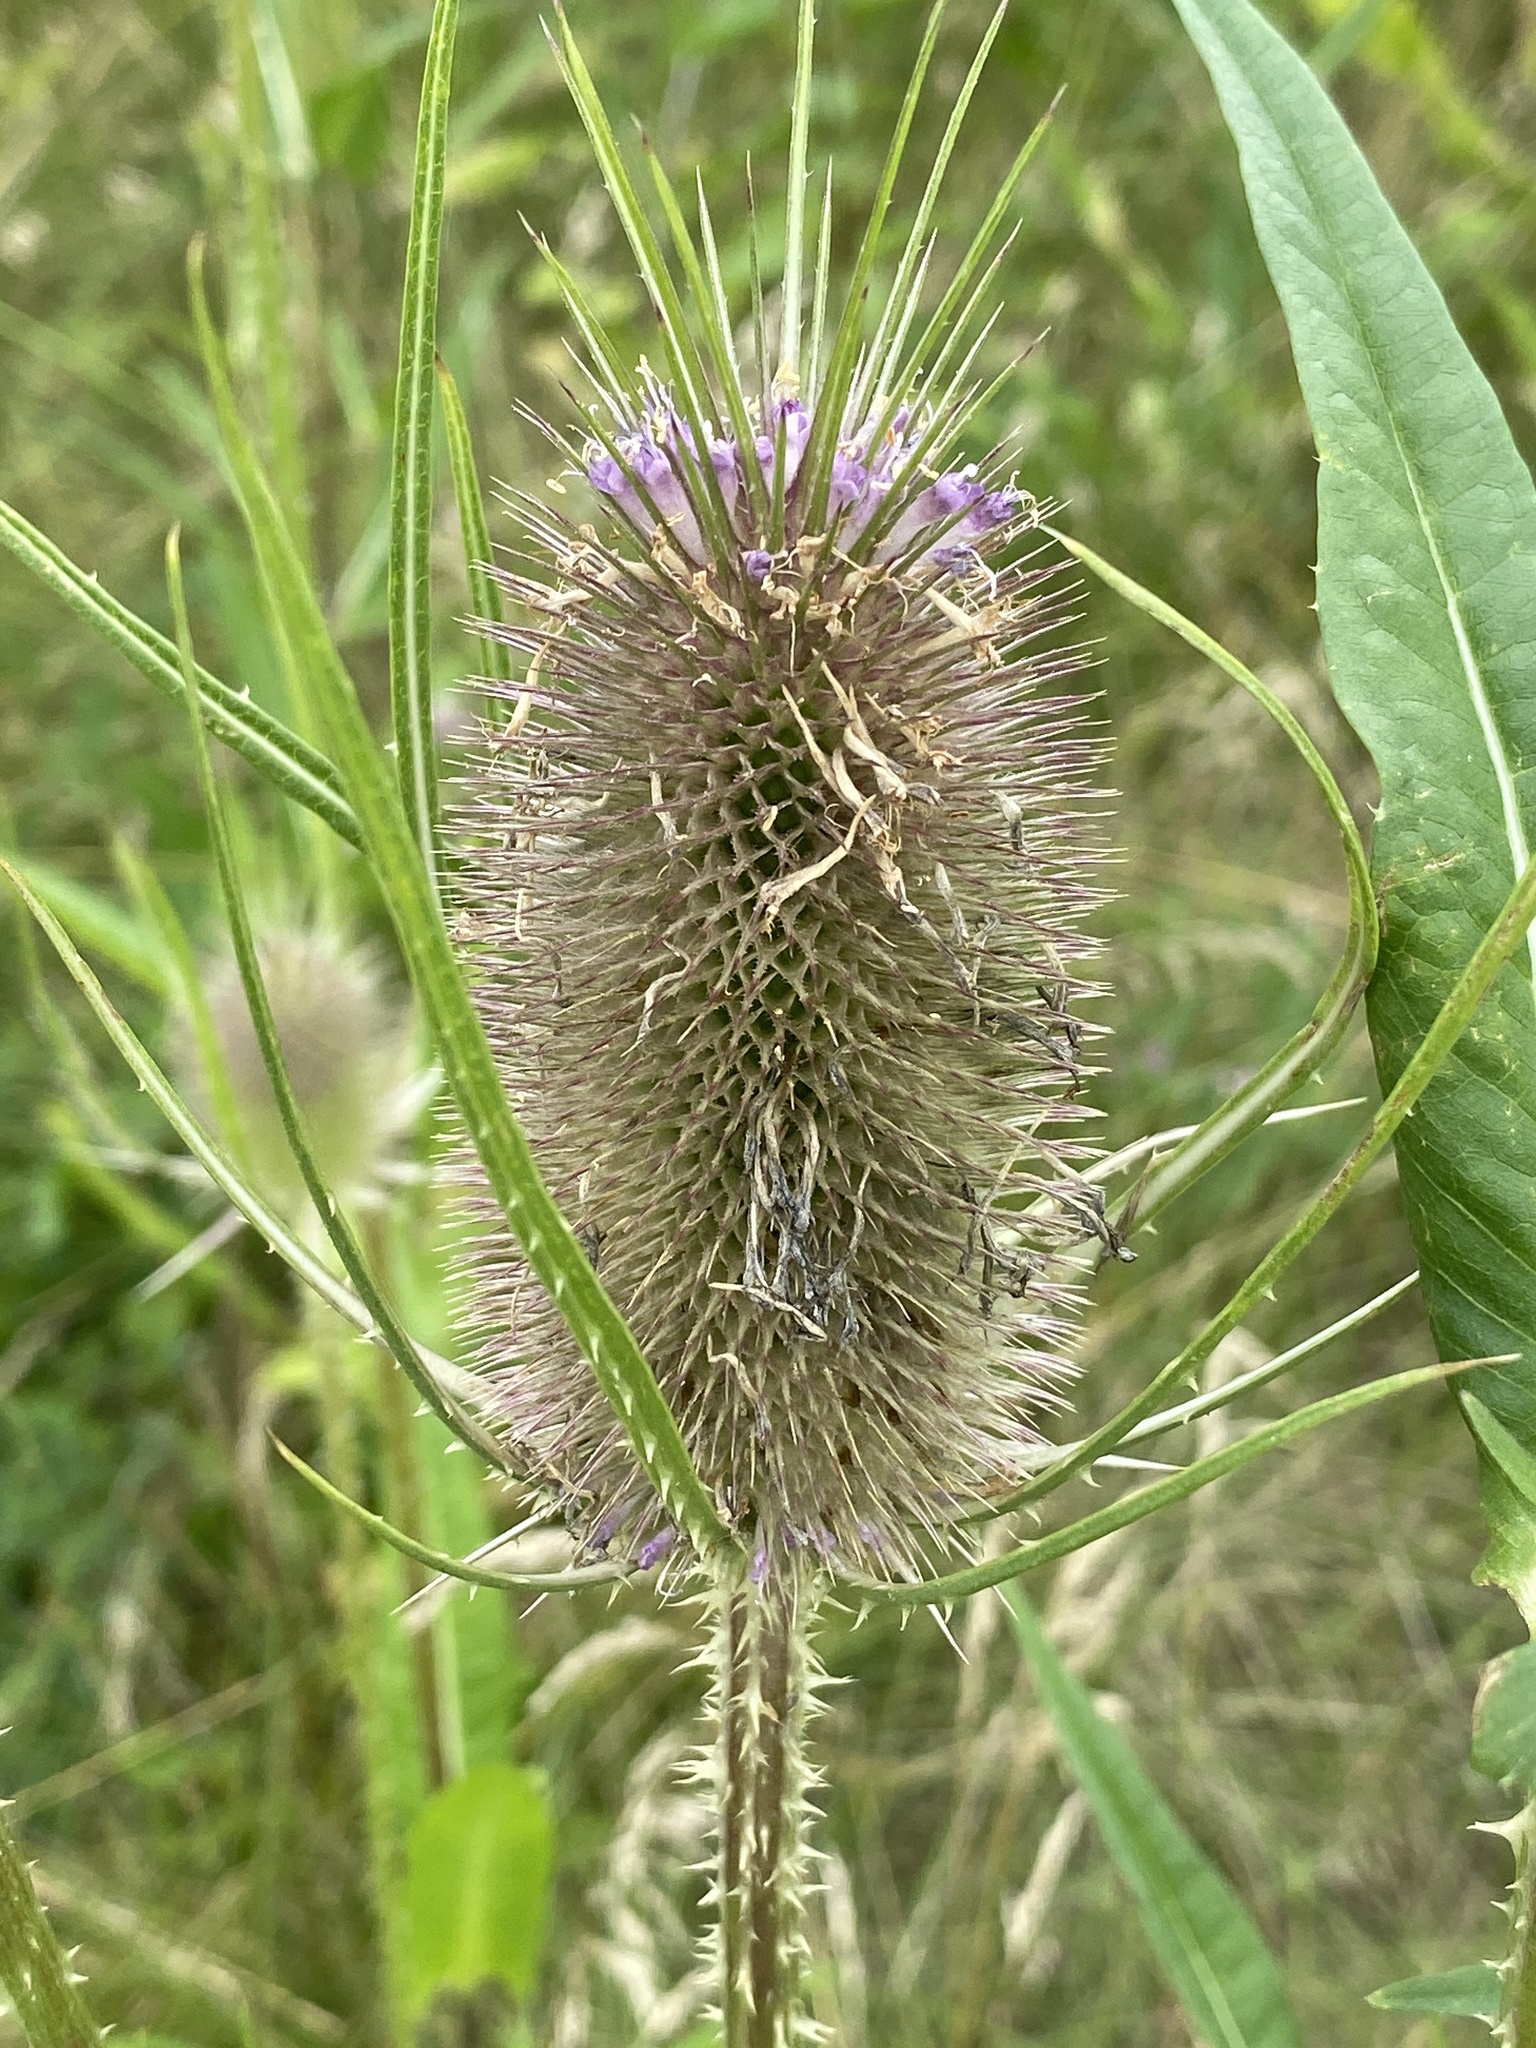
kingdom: Plantae
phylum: Tracheophyta
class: Magnoliopsida
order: Dipsacales
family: Caprifoliaceae
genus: Dipsacus
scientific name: Dipsacus fullonum
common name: Teasel
